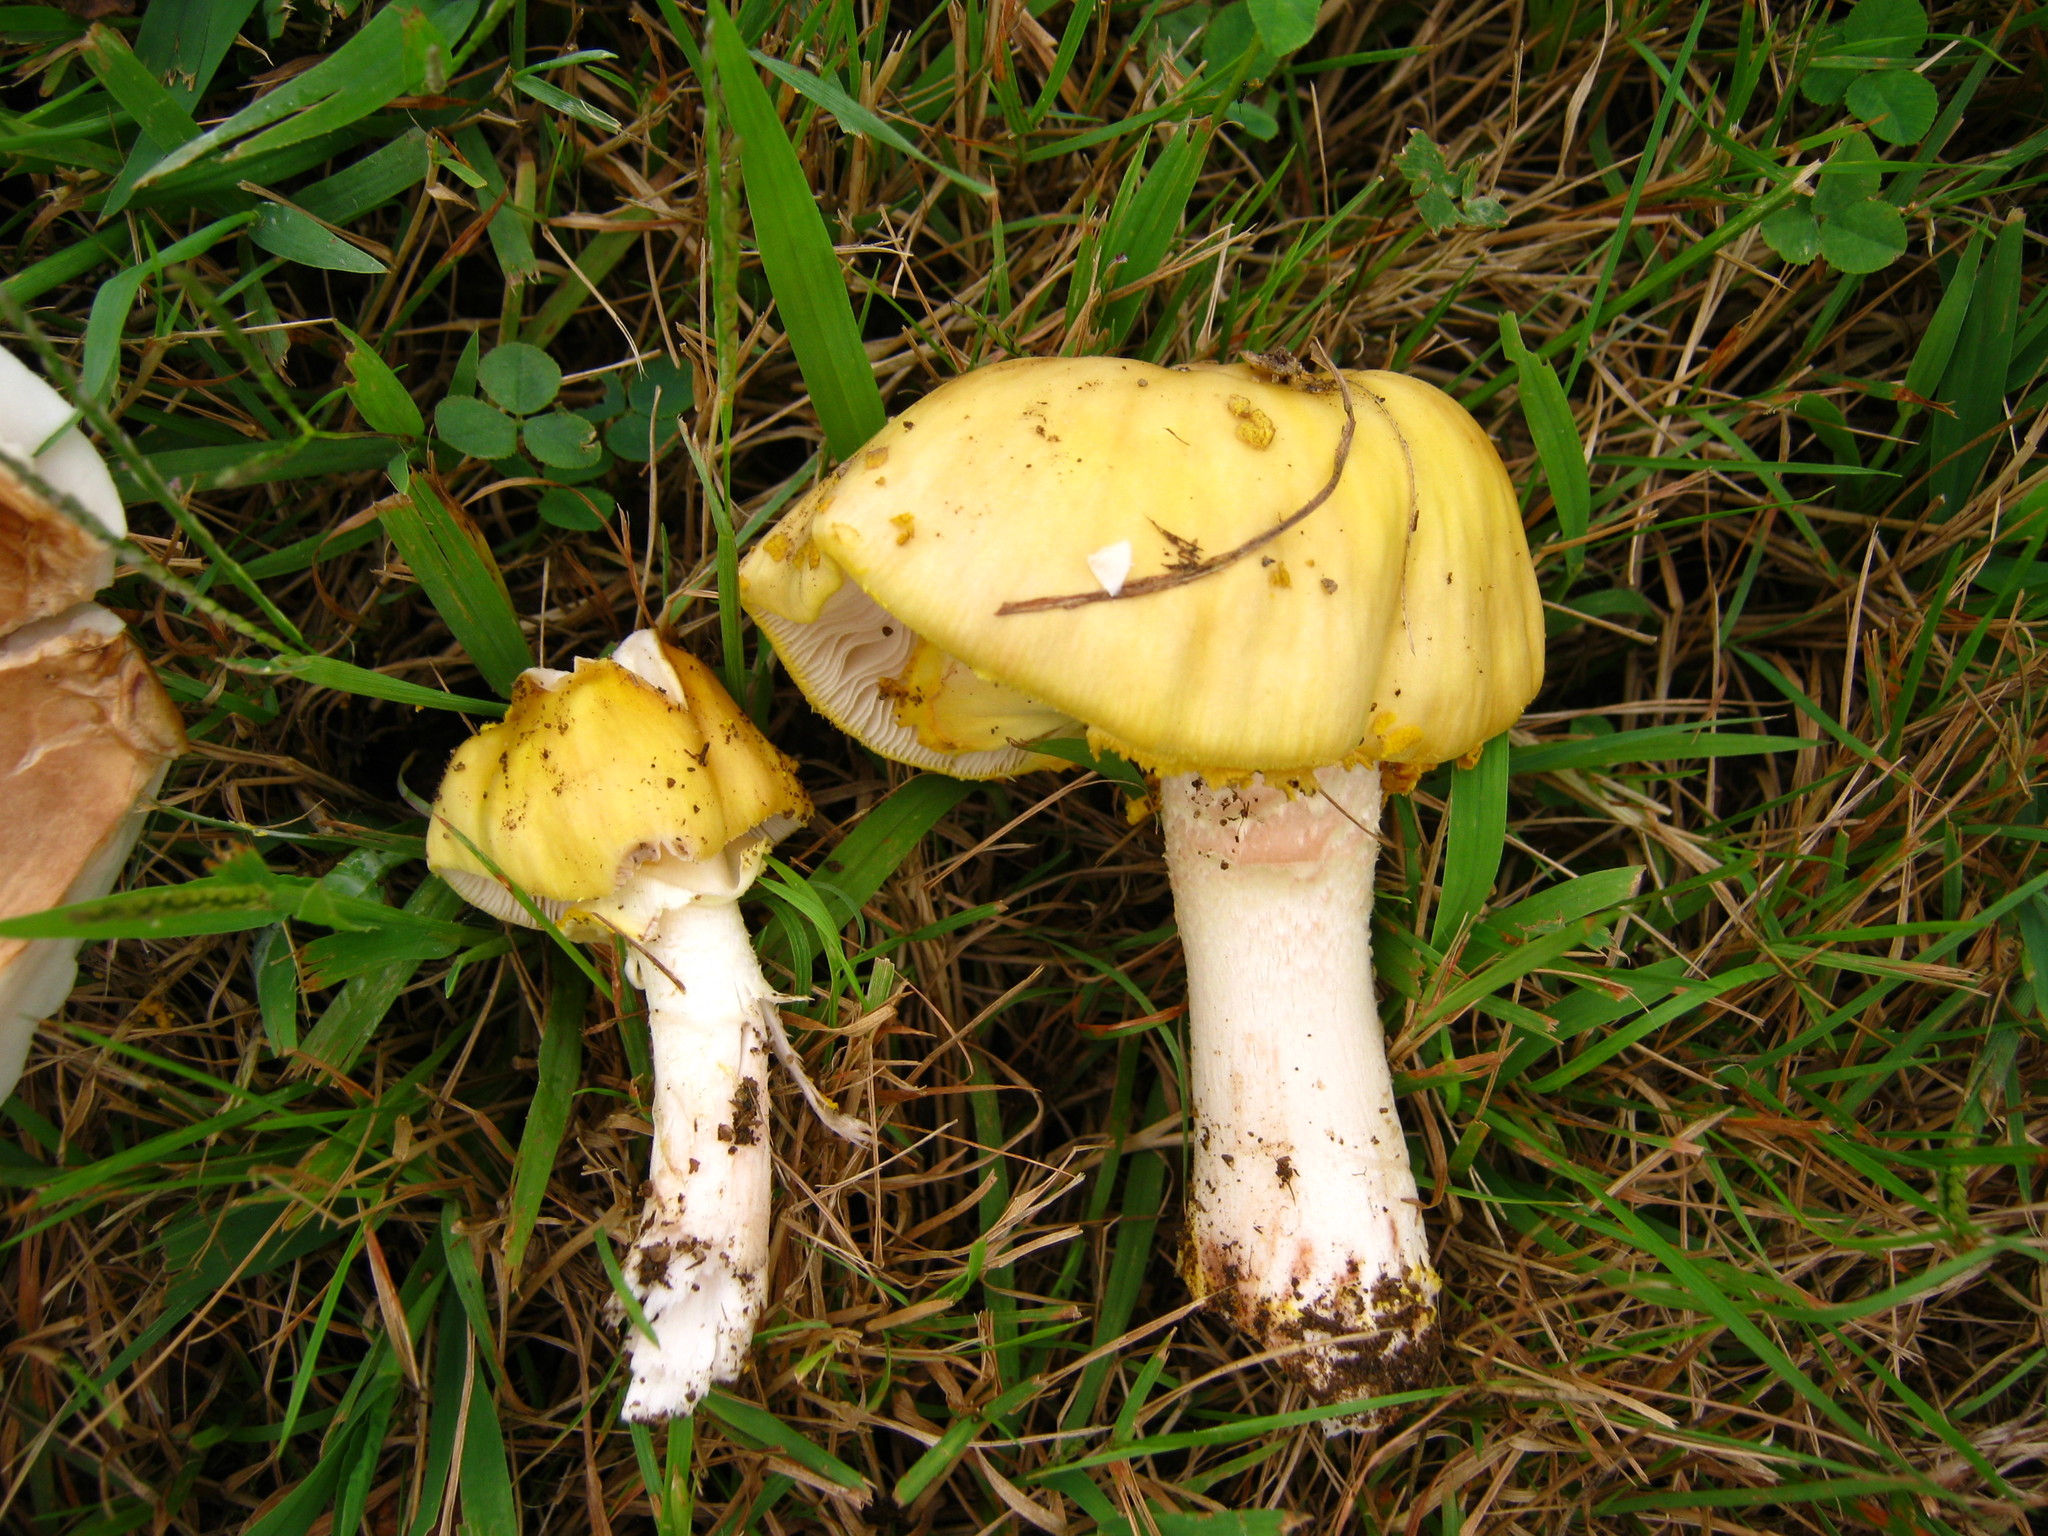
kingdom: Fungi
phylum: Basidiomycota
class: Agaricomycetes
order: Agaricales
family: Amanitaceae
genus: Amanita
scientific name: Amanita flavorubens
